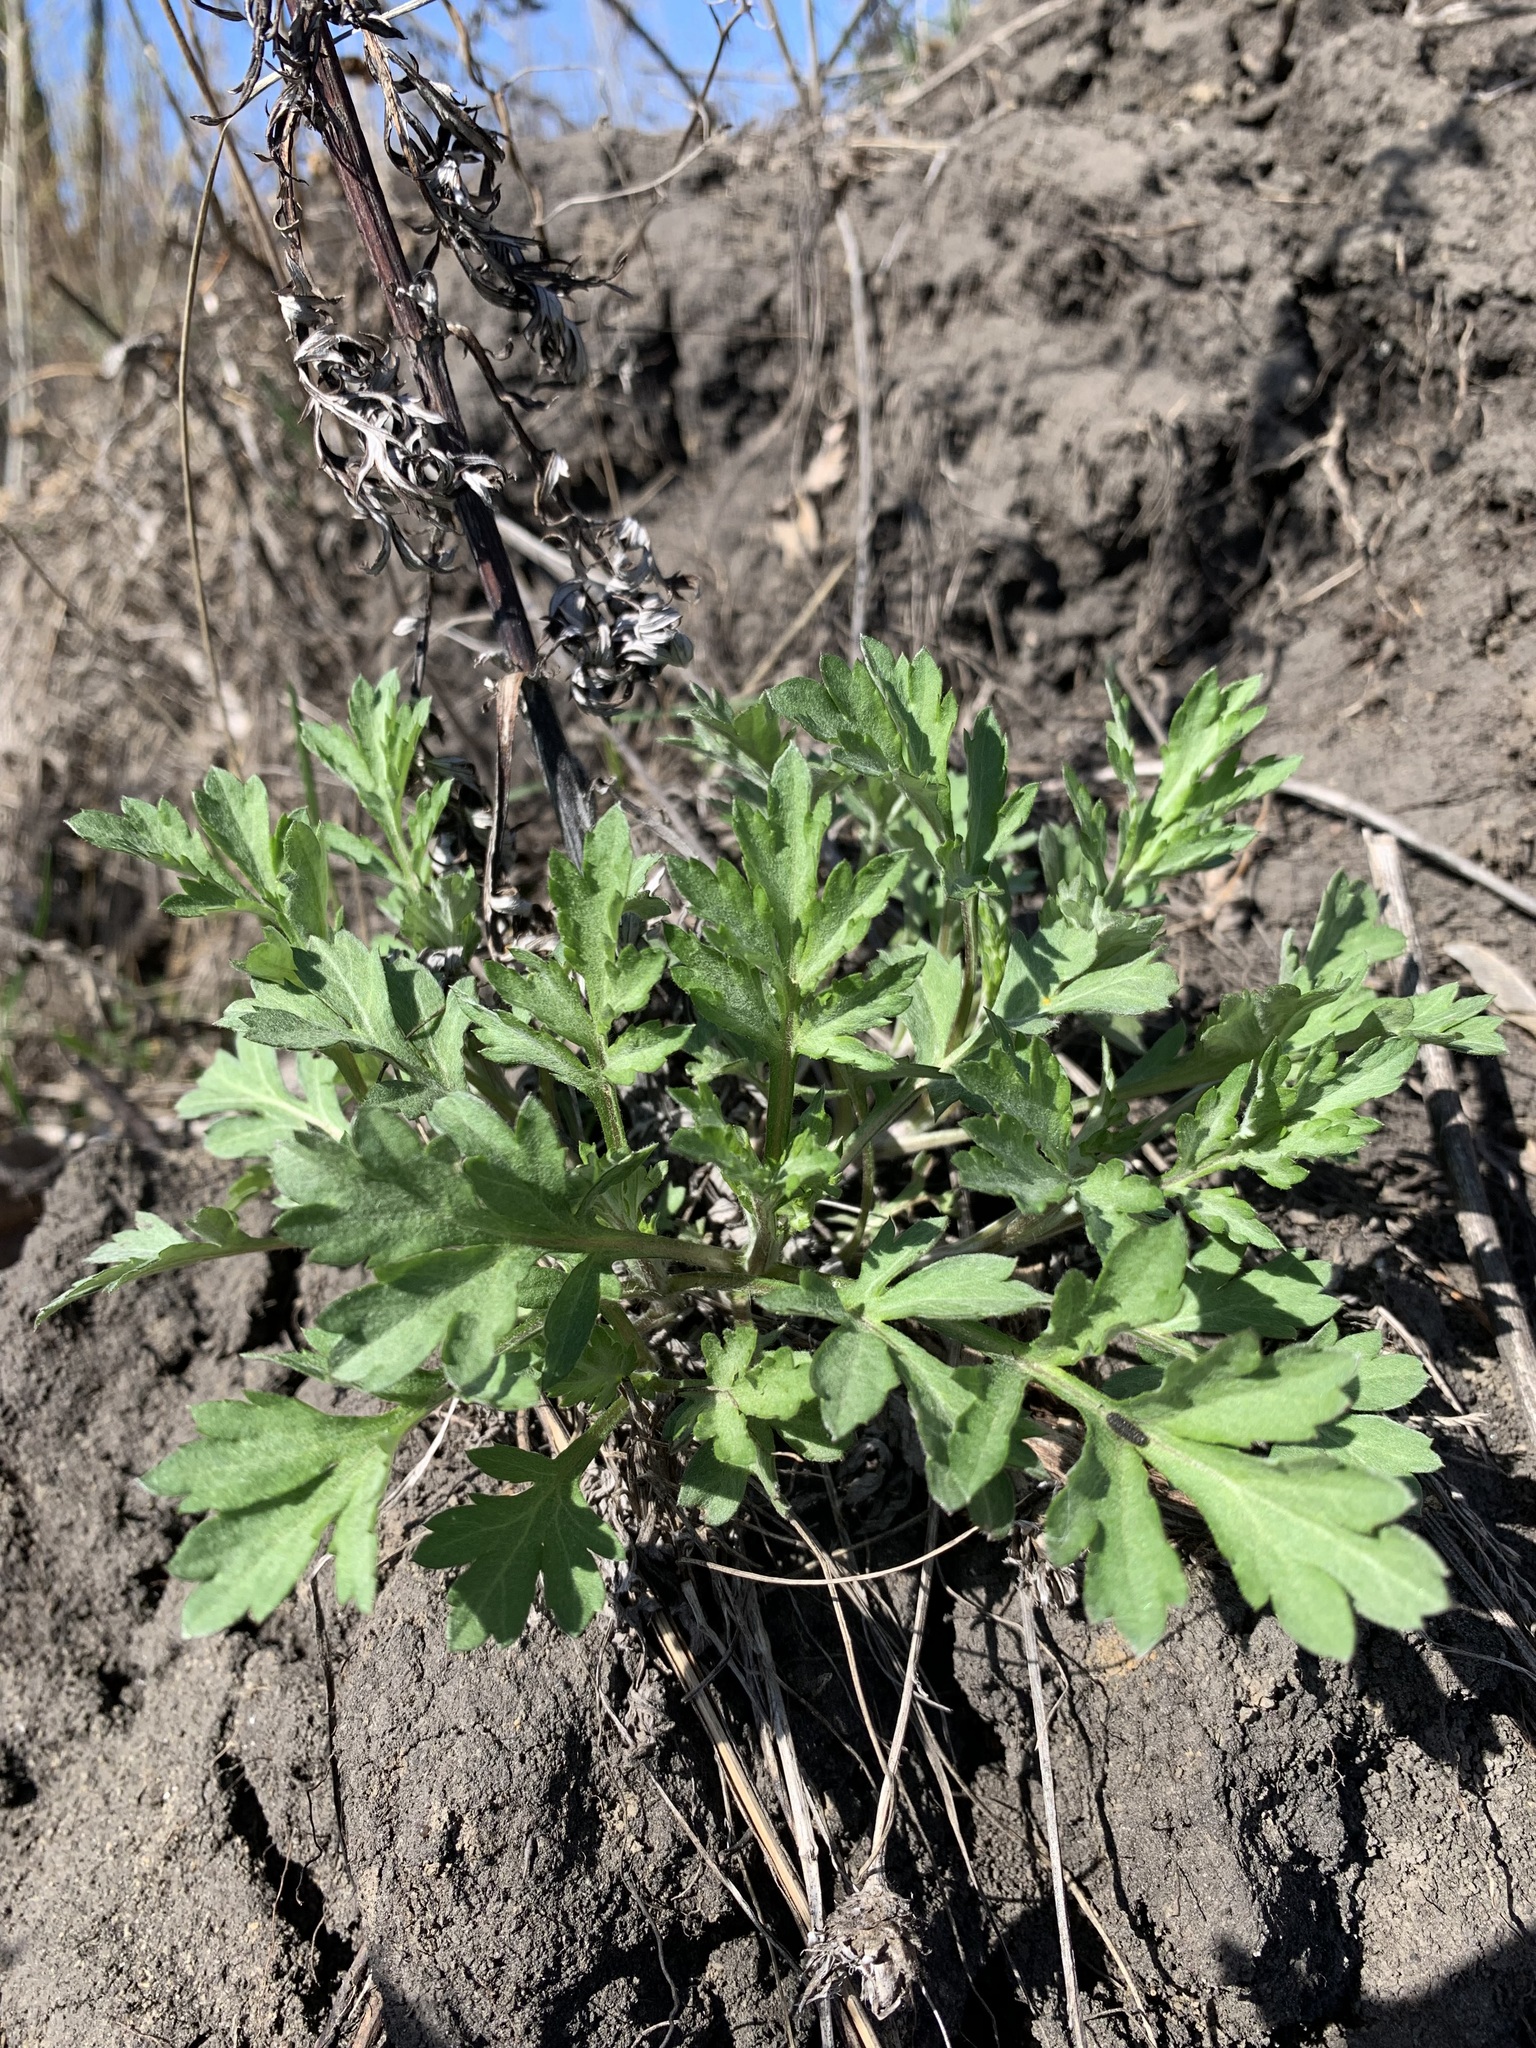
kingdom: Plantae
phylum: Tracheophyta
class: Magnoliopsida
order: Asterales
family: Asteraceae
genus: Artemisia
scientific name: Artemisia vulgaris
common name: Mugwort
